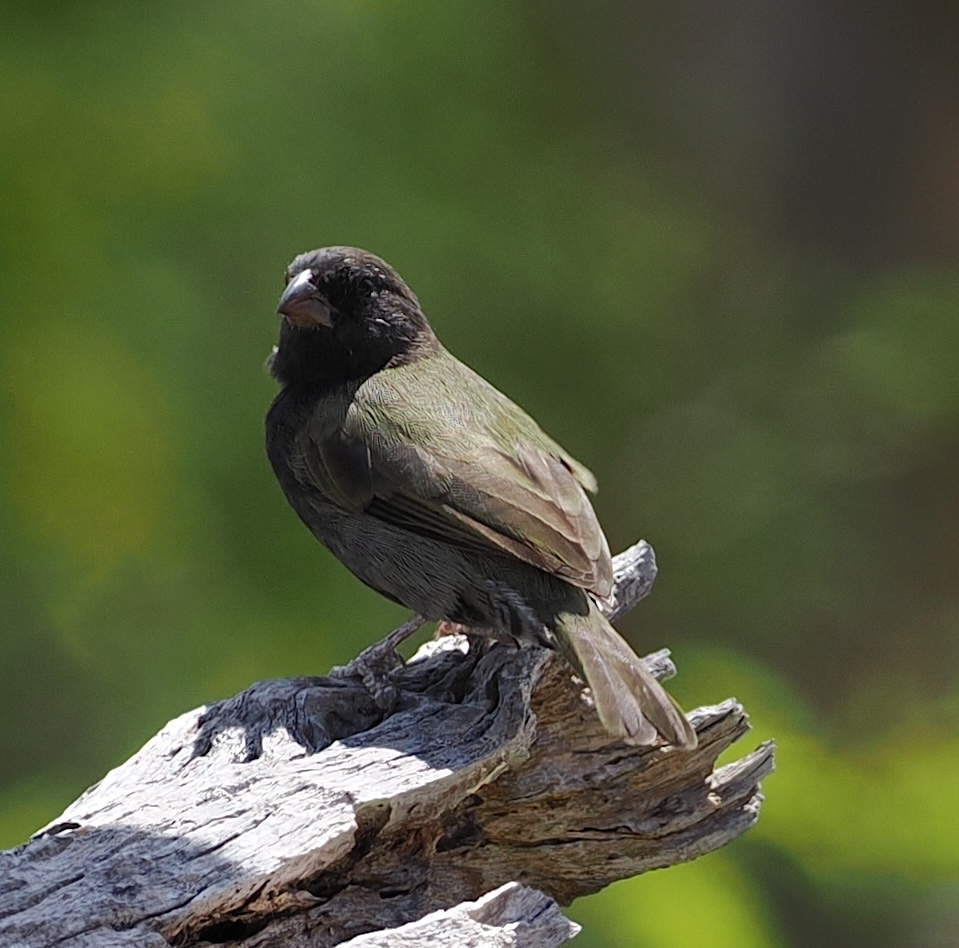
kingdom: Animalia
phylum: Chordata
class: Aves
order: Passeriformes
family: Thraupidae
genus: Melanospiza
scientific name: Melanospiza bicolor
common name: Black-faced grassquit
